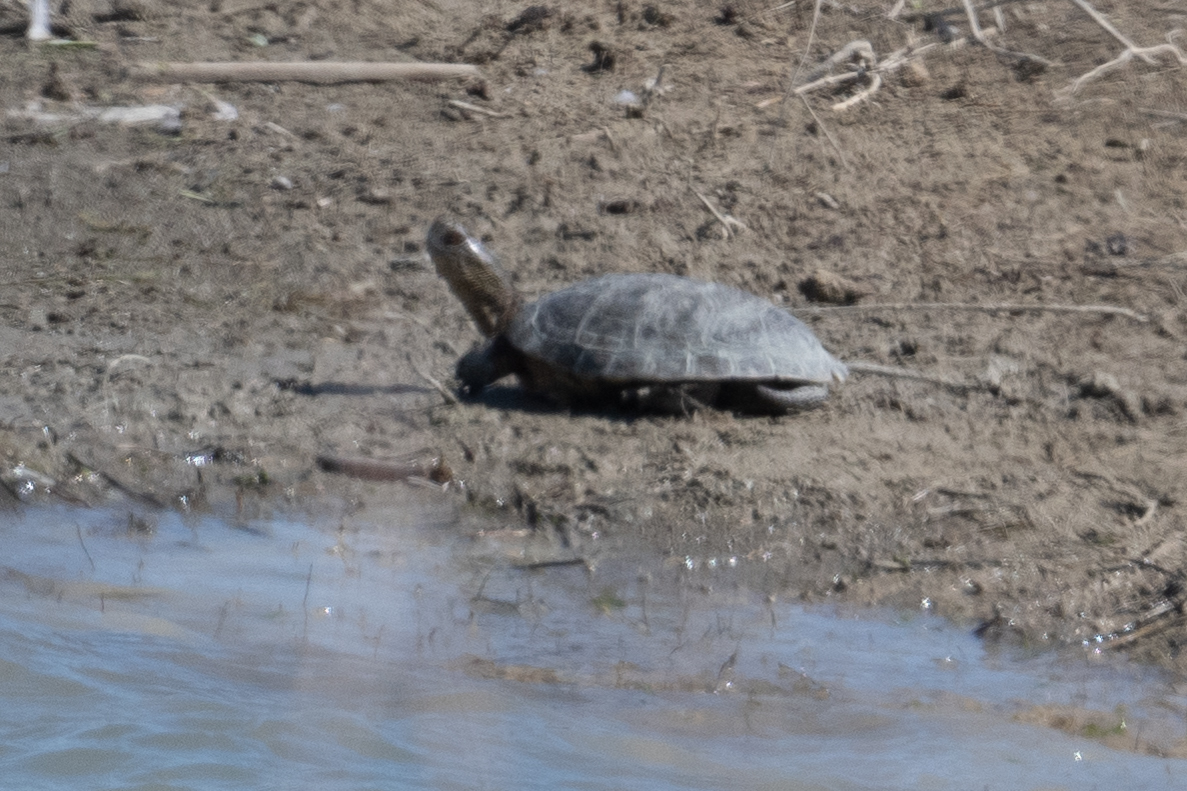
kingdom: Animalia
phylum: Chordata
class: Testudines
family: Emydidae
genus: Actinemys
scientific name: Actinemys marmorata
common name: Western pond turtle
